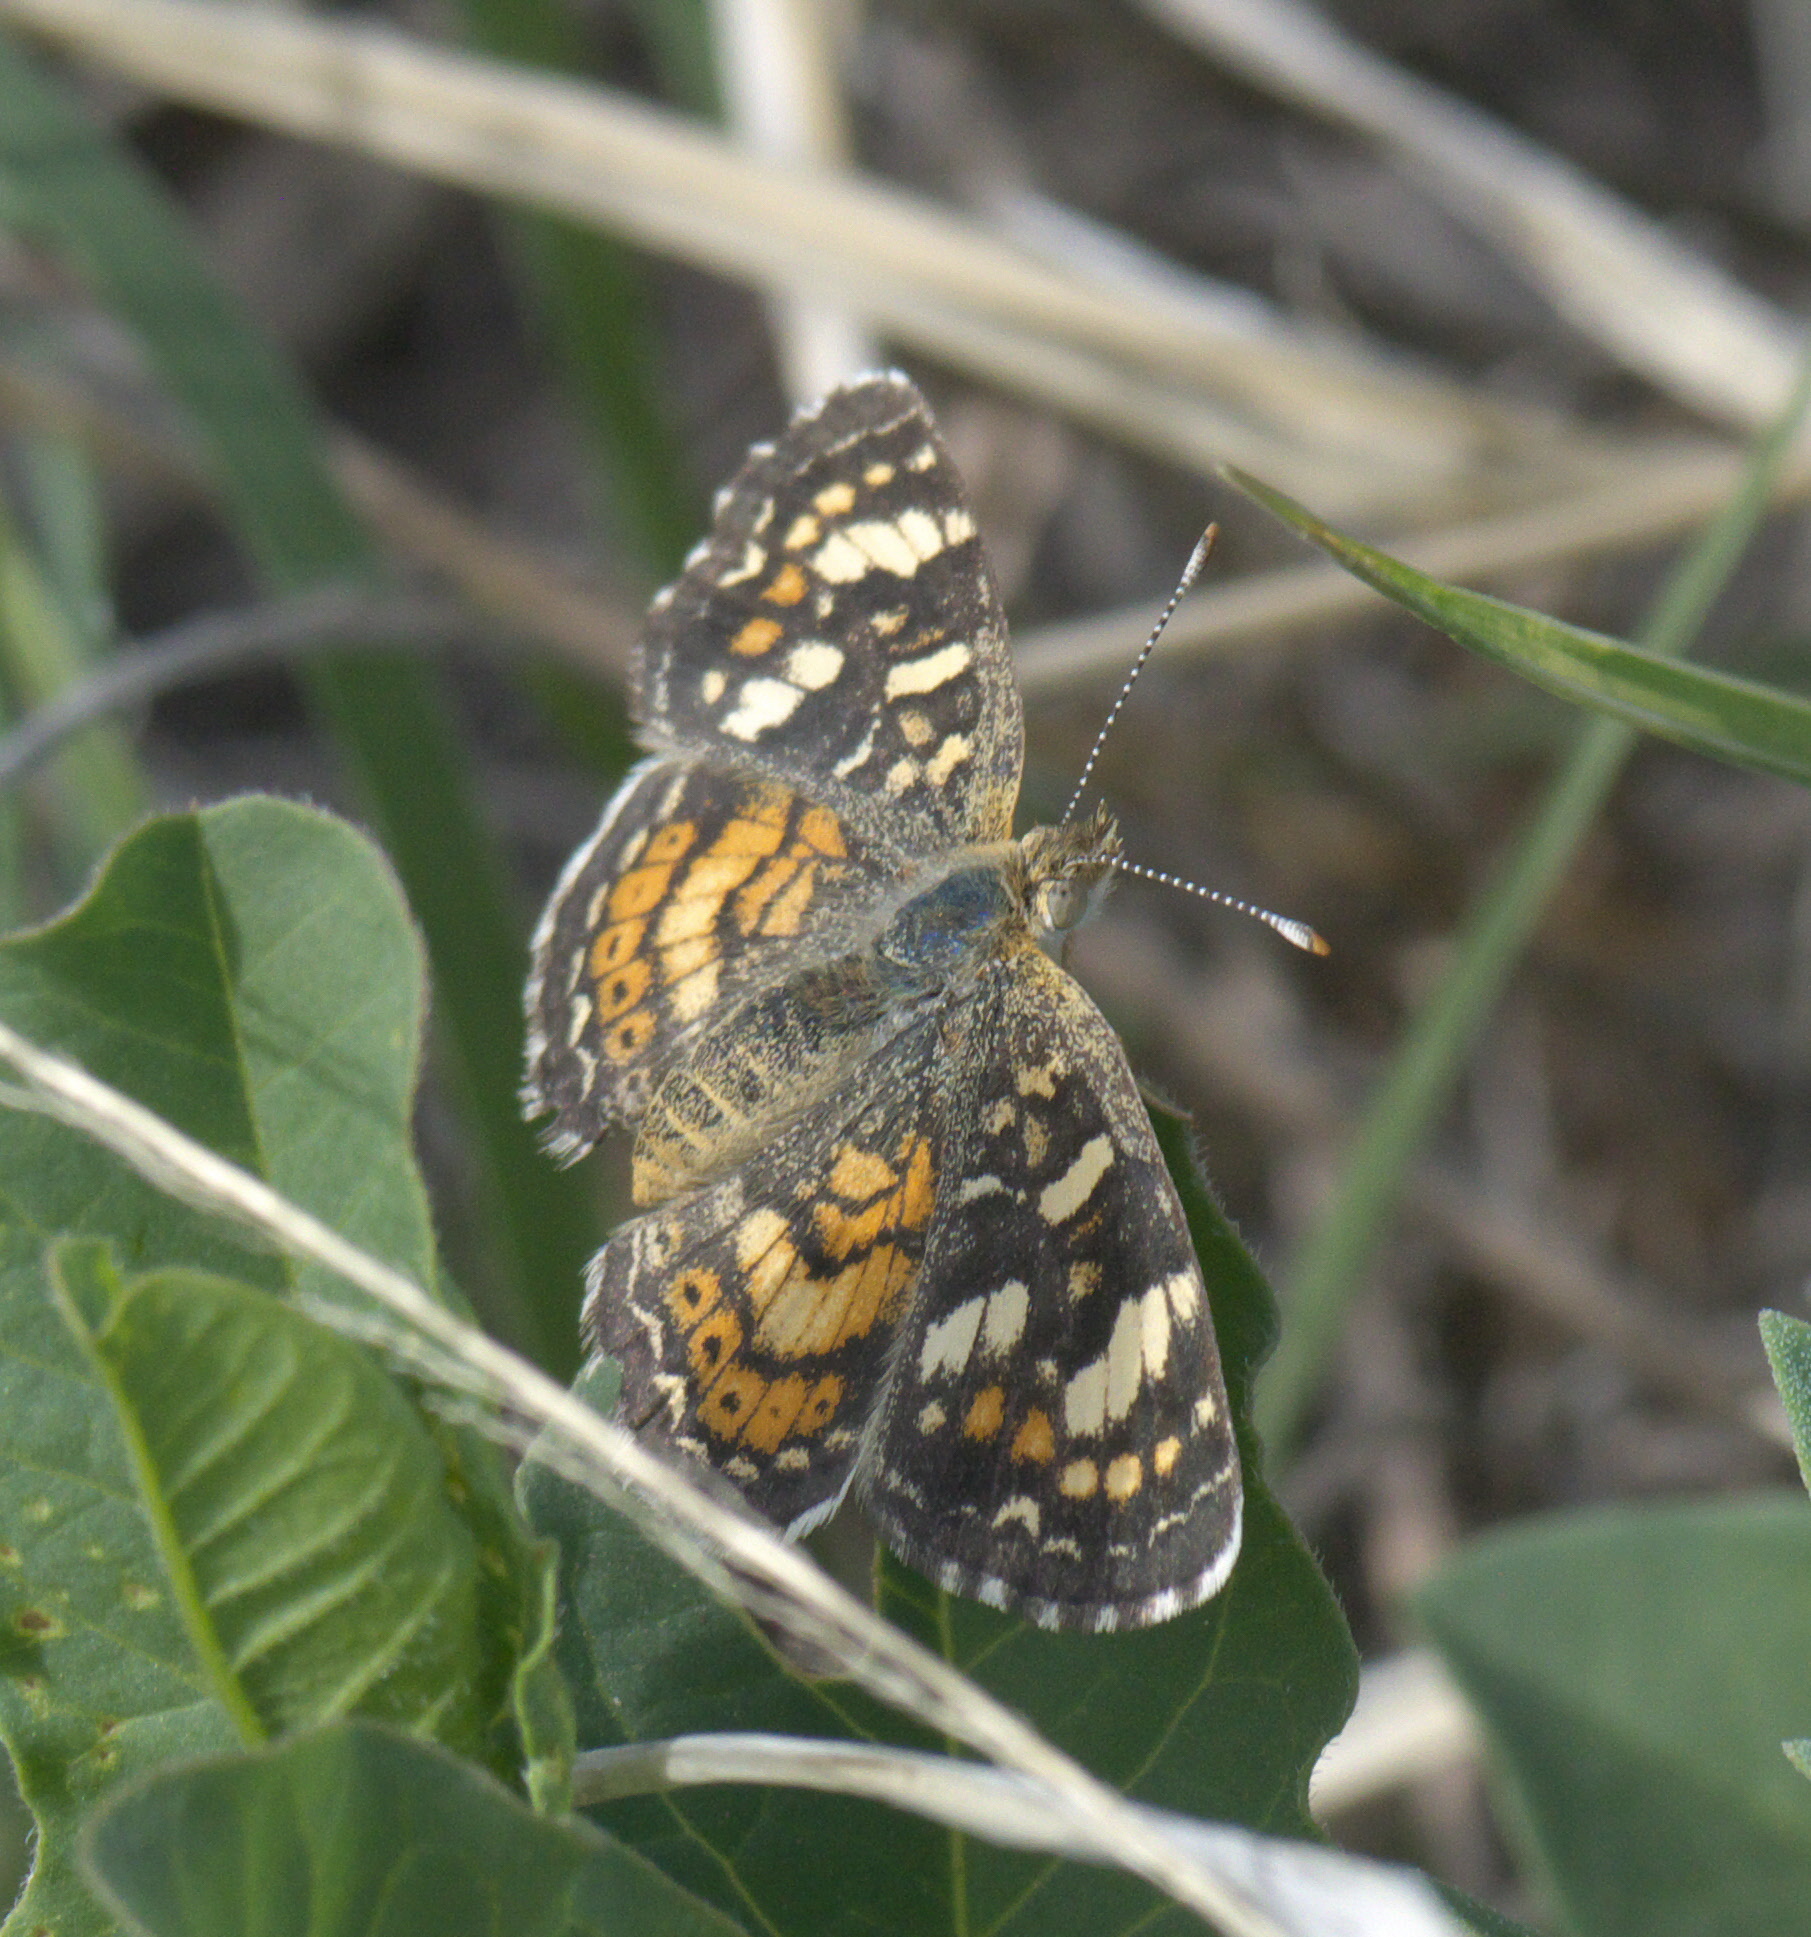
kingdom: Animalia
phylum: Arthropoda
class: Insecta
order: Lepidoptera
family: Nymphalidae
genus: Phyciodes
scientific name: Phyciodes picta
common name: Painted crescent
